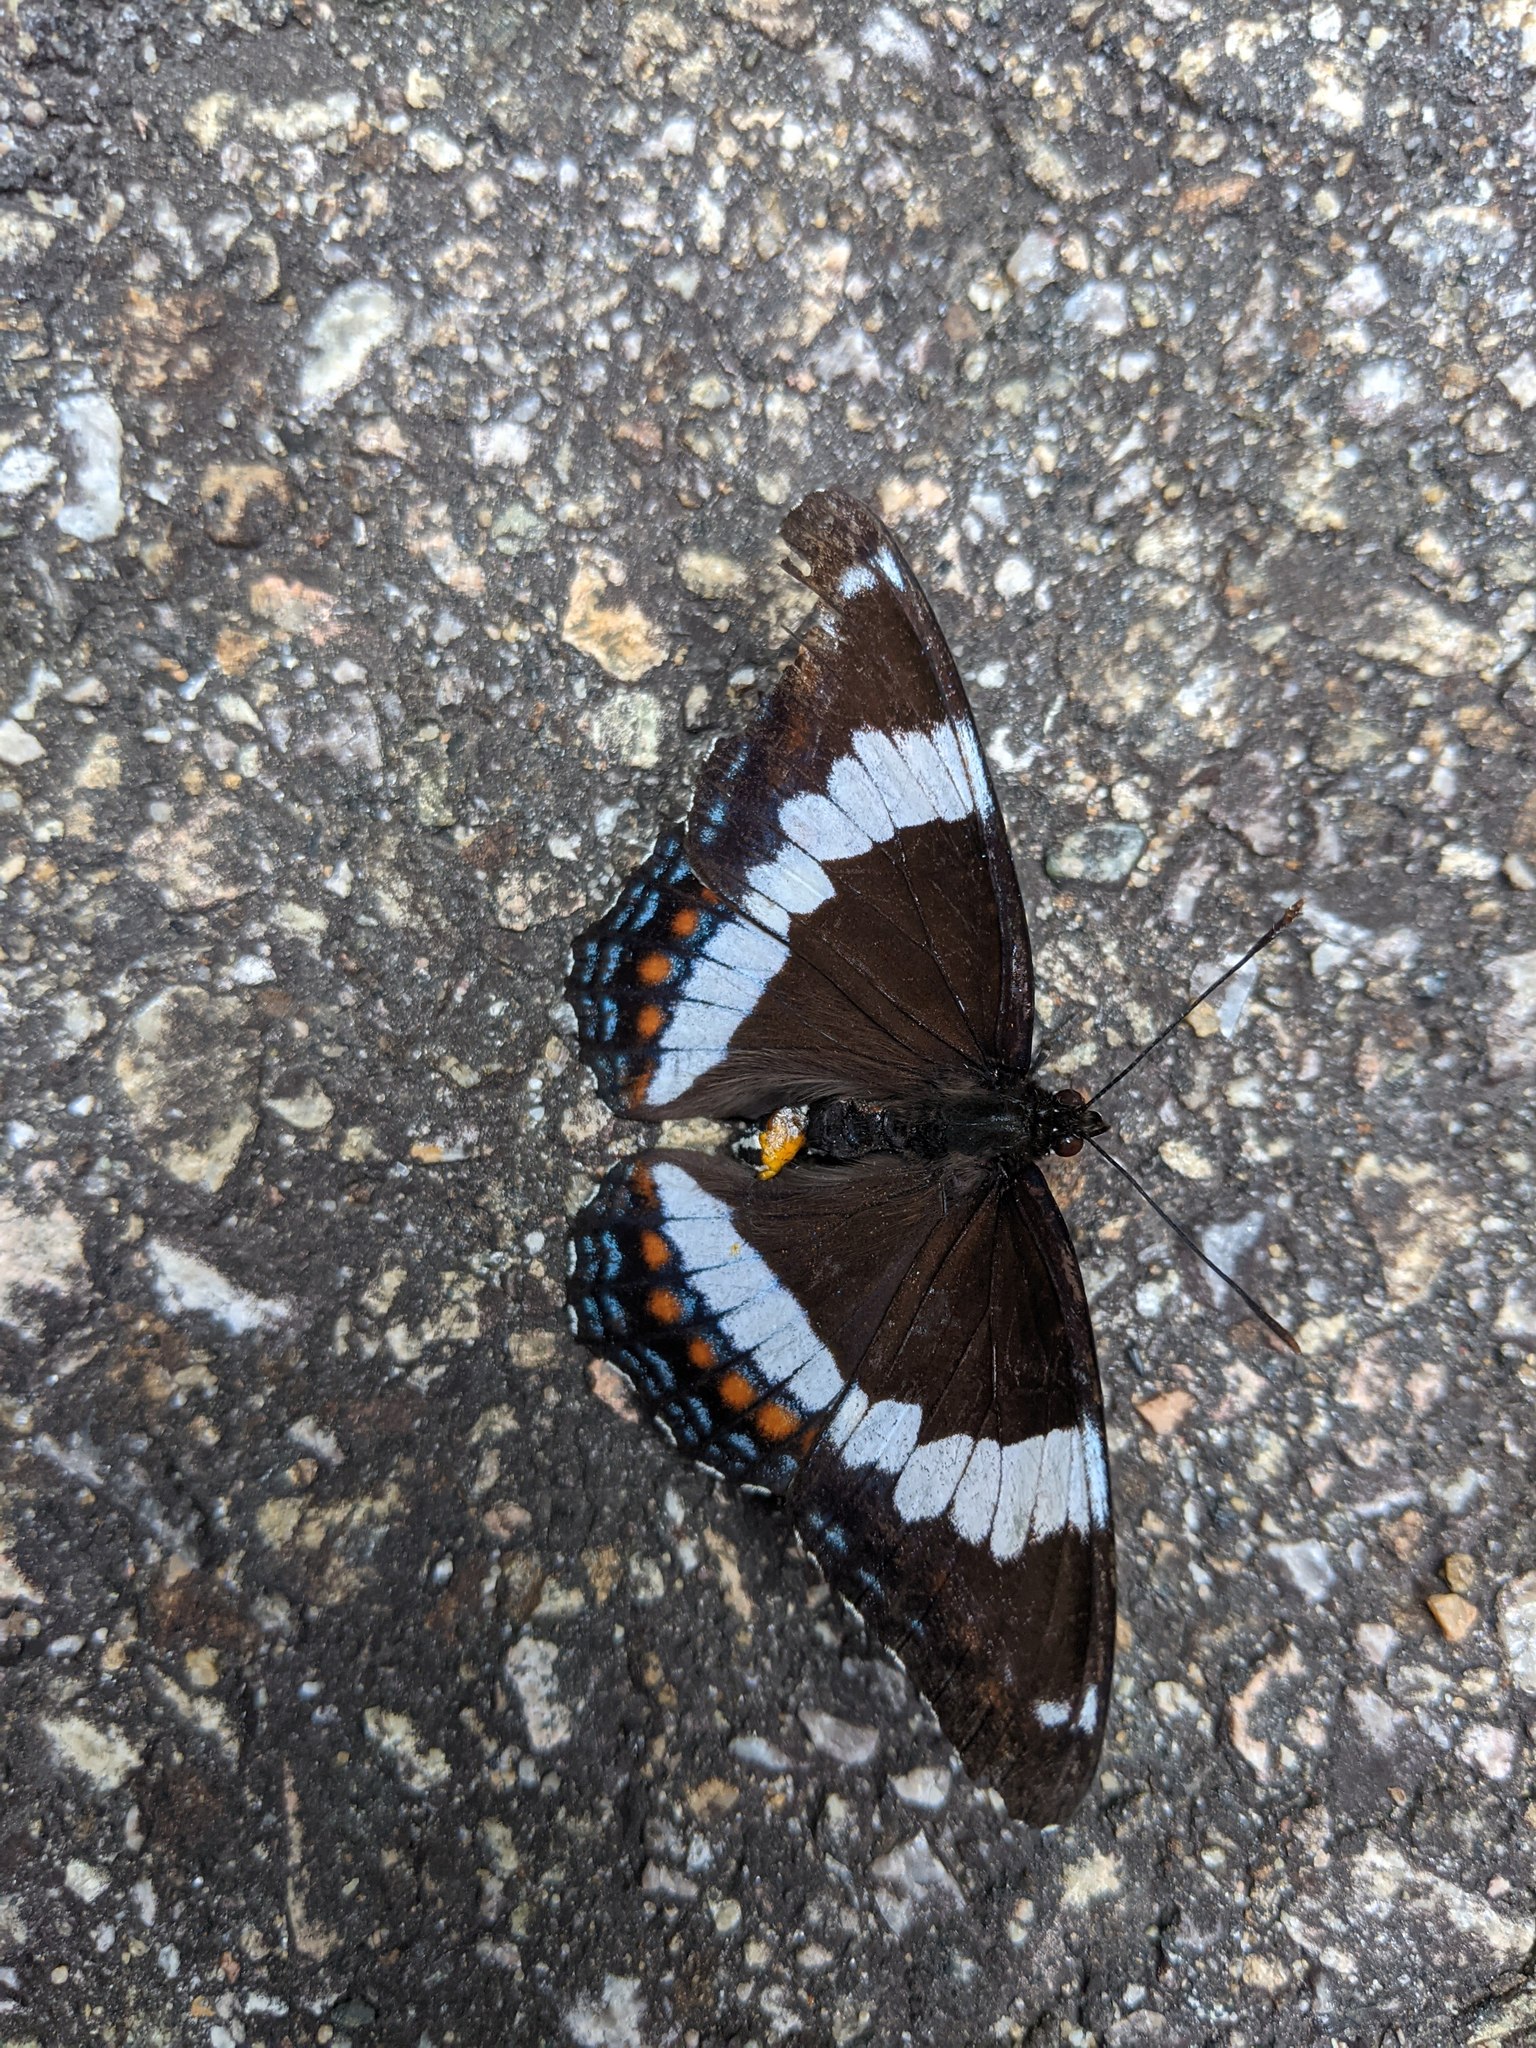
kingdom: Animalia
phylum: Arthropoda
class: Insecta
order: Lepidoptera
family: Nymphalidae
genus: Limenitis
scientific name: Limenitis arthemis
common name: Red-spotted admiral
